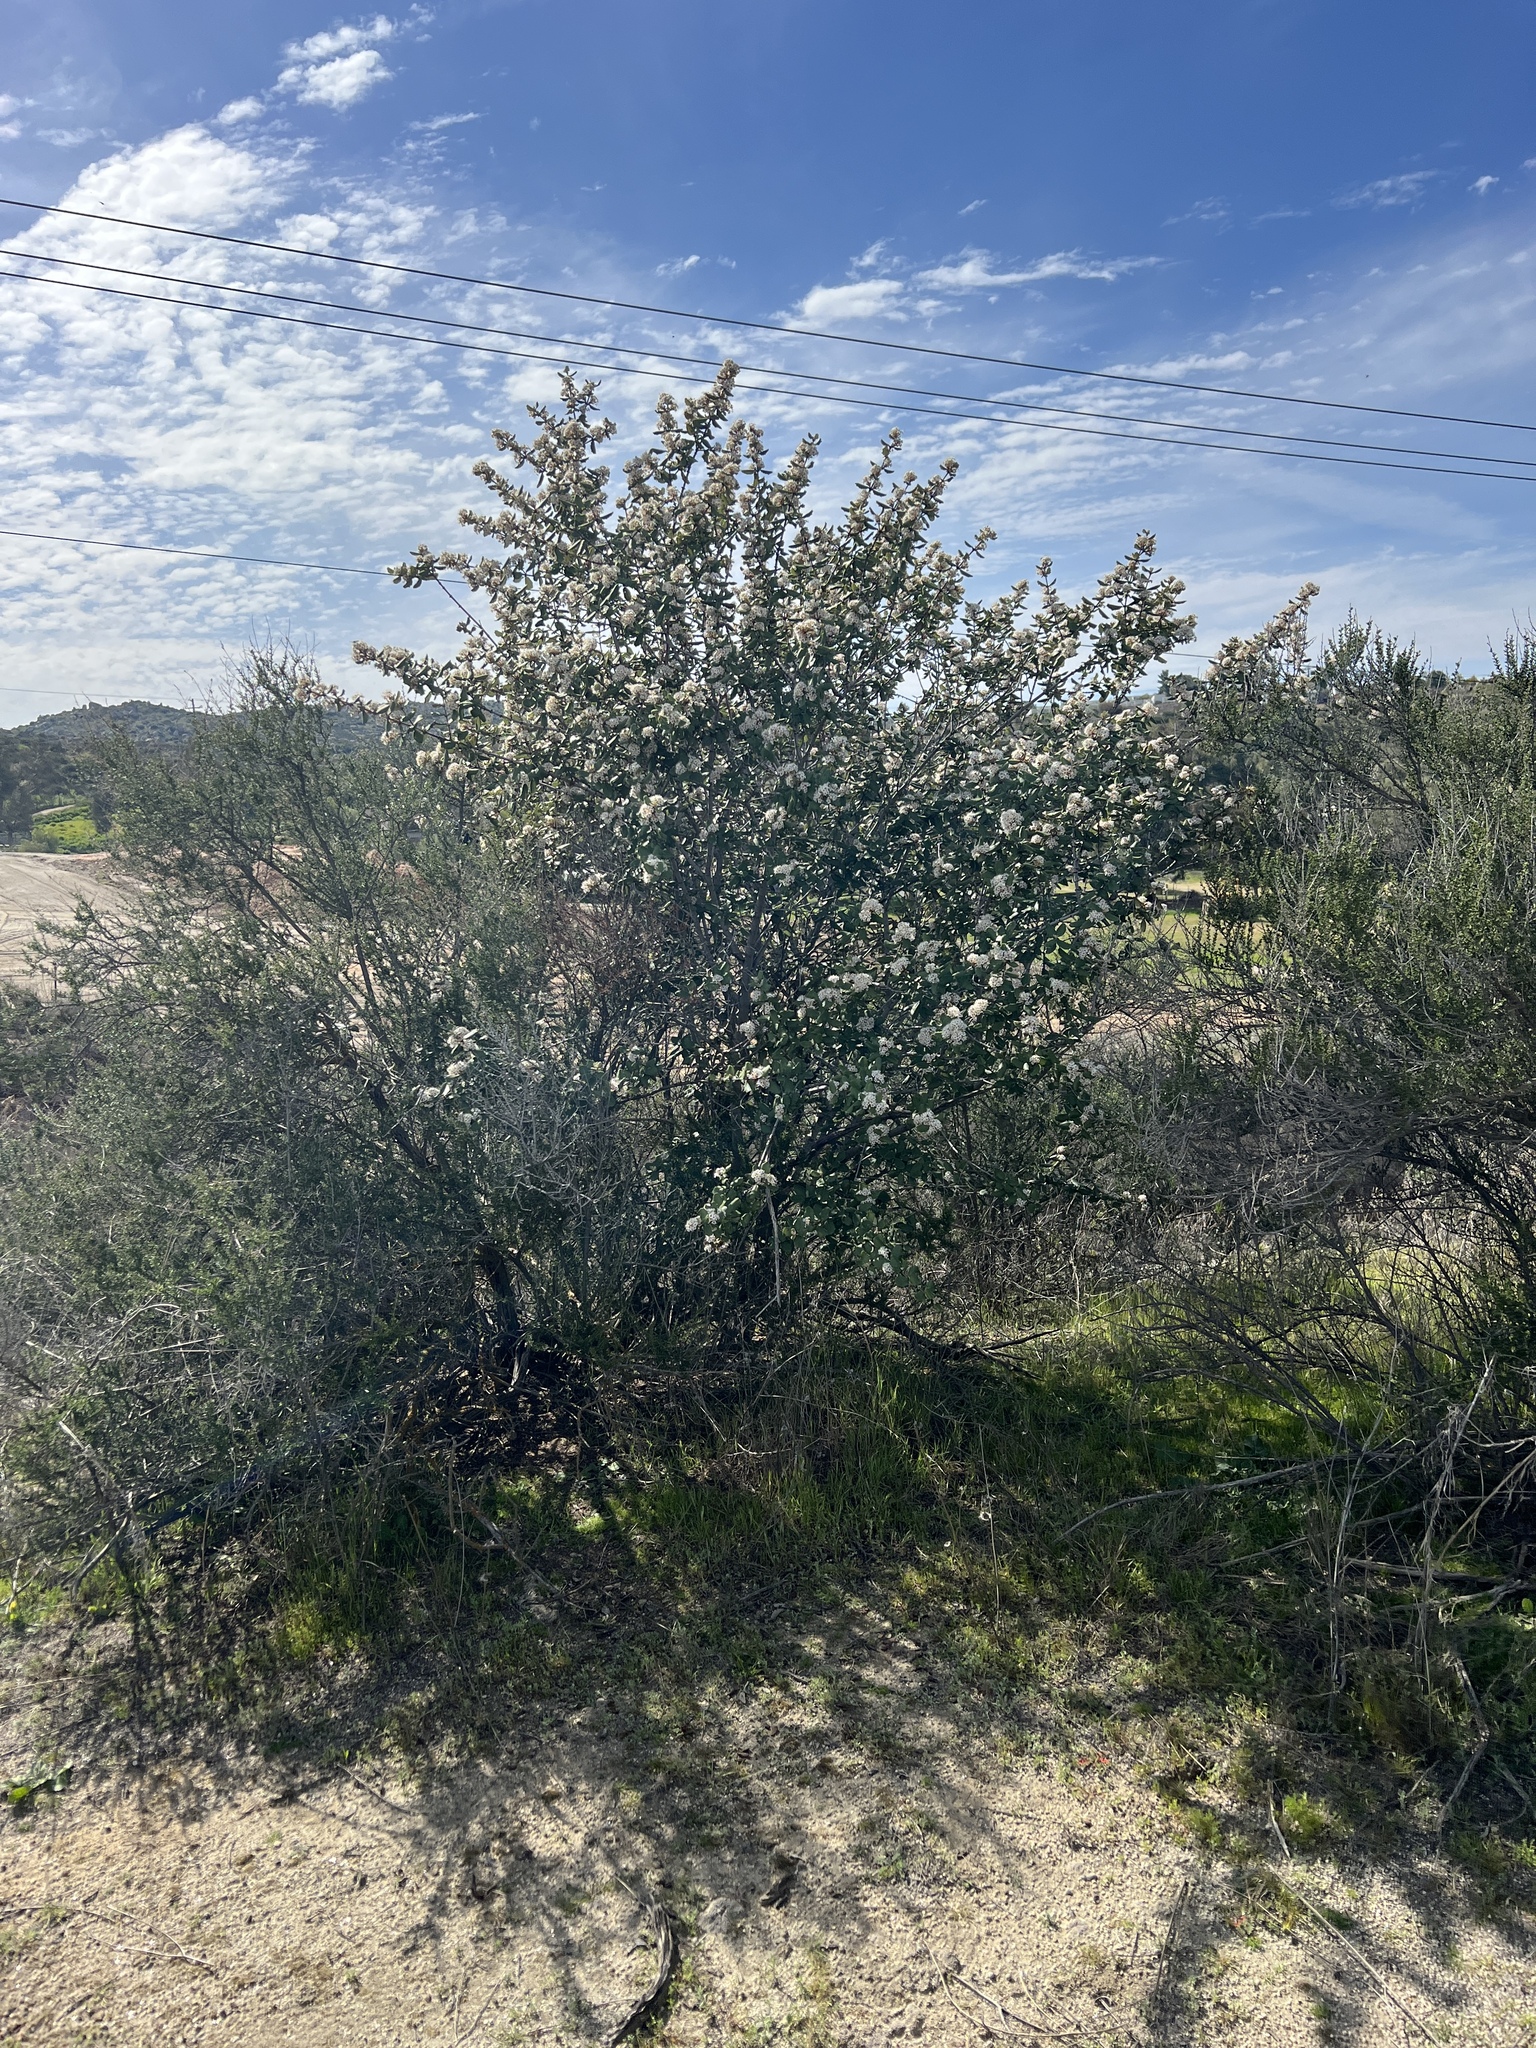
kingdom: Plantae
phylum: Tracheophyta
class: Magnoliopsida
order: Rosales
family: Rhamnaceae
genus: Ceanothus
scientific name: Ceanothus crassifolius
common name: Hoaryleaf ceanothus
